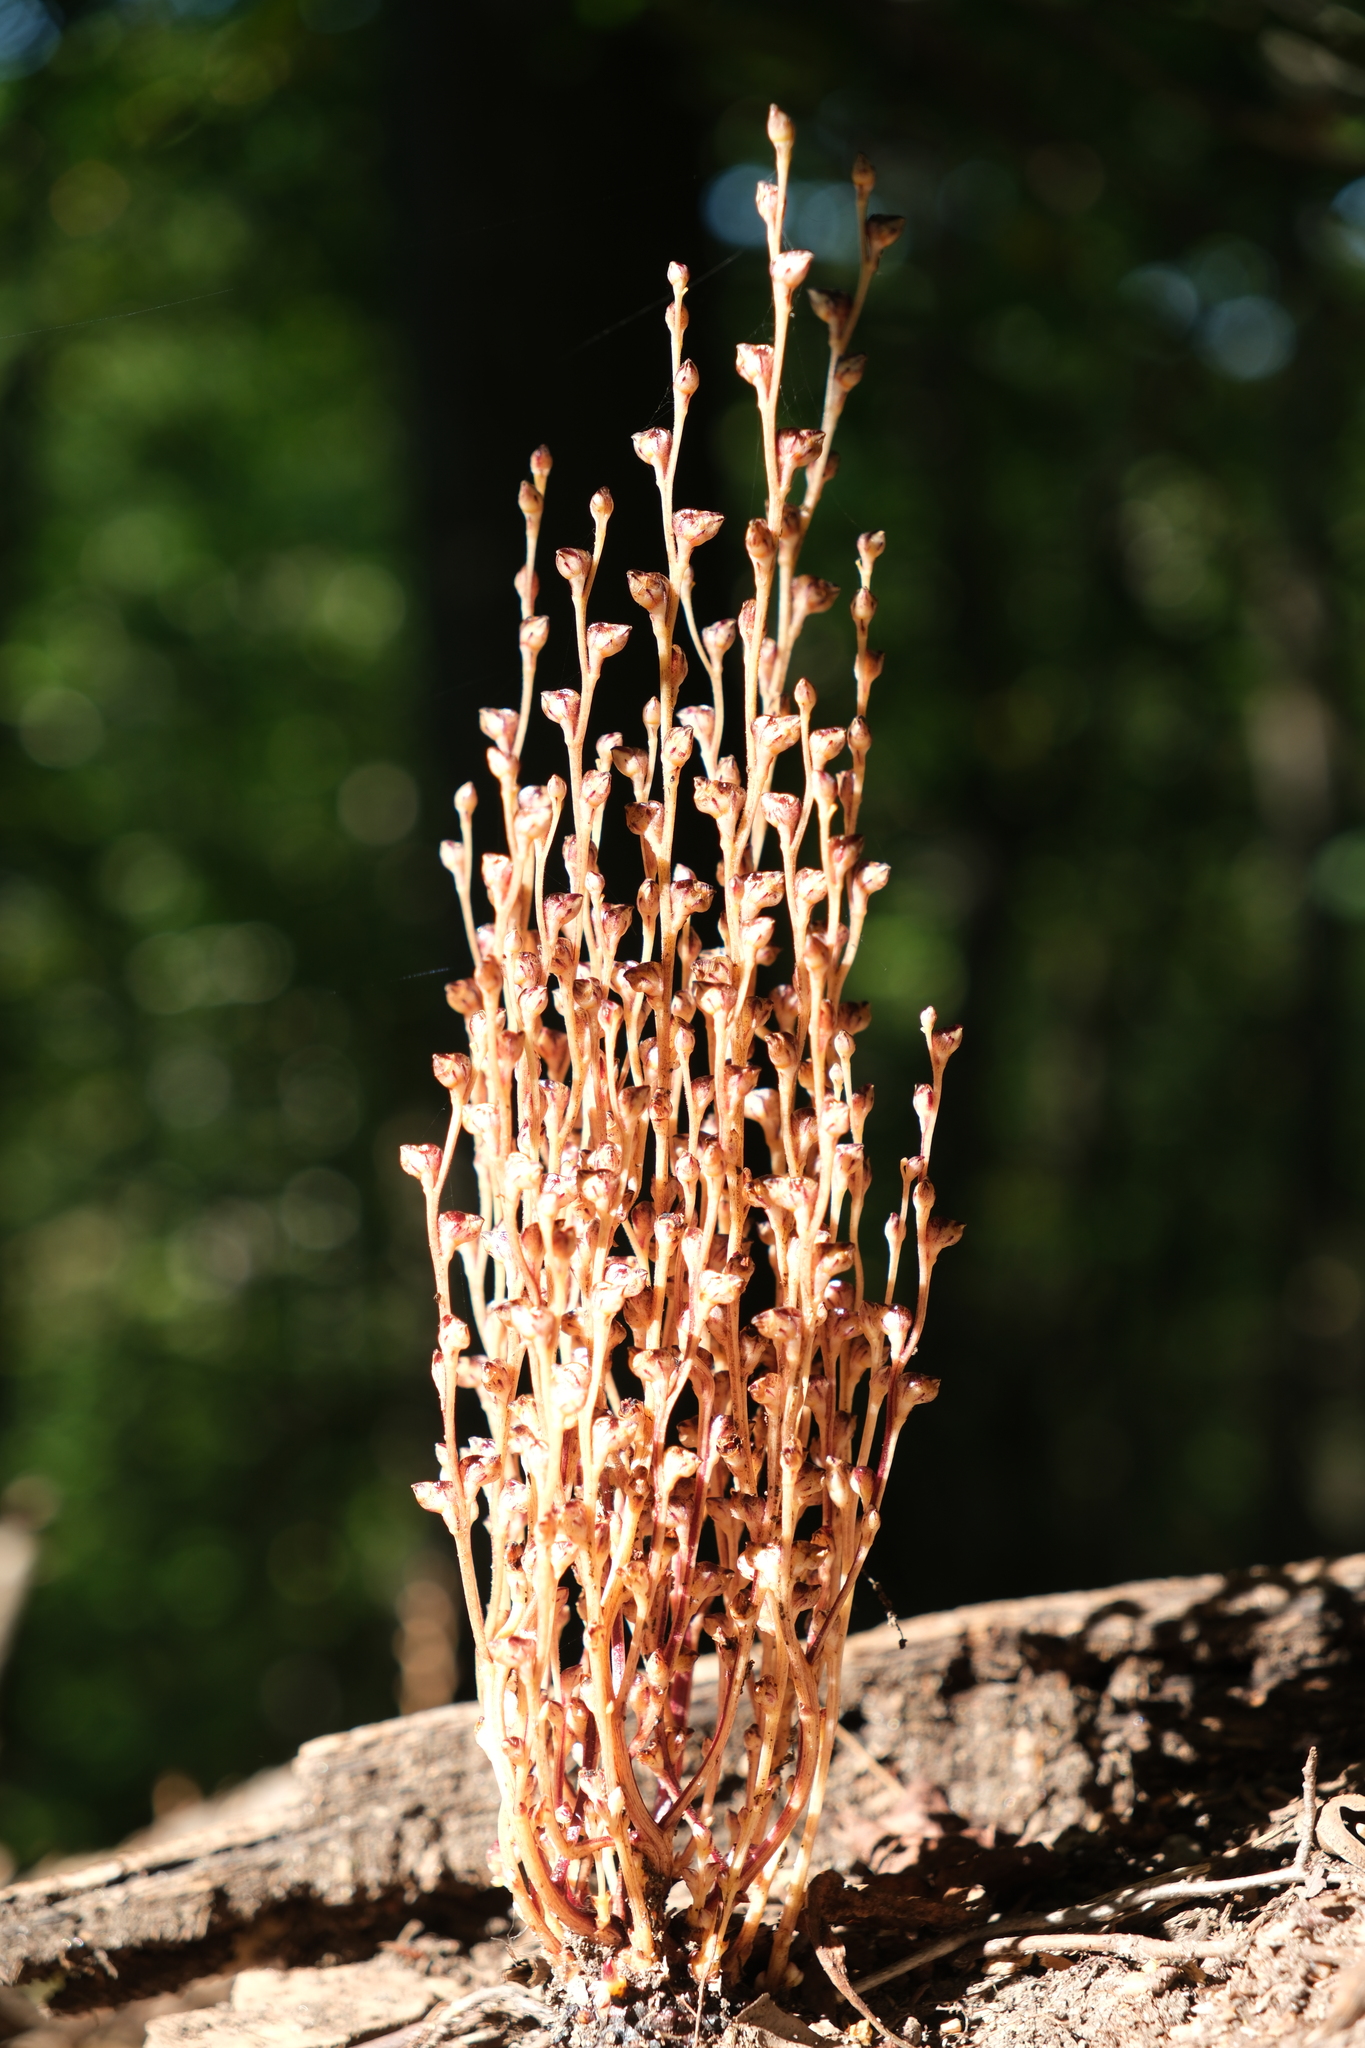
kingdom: Plantae
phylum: Tracheophyta
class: Magnoliopsida
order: Lamiales
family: Orobanchaceae
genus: Epifagus
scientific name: Epifagus virginiana
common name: Beechdrops
